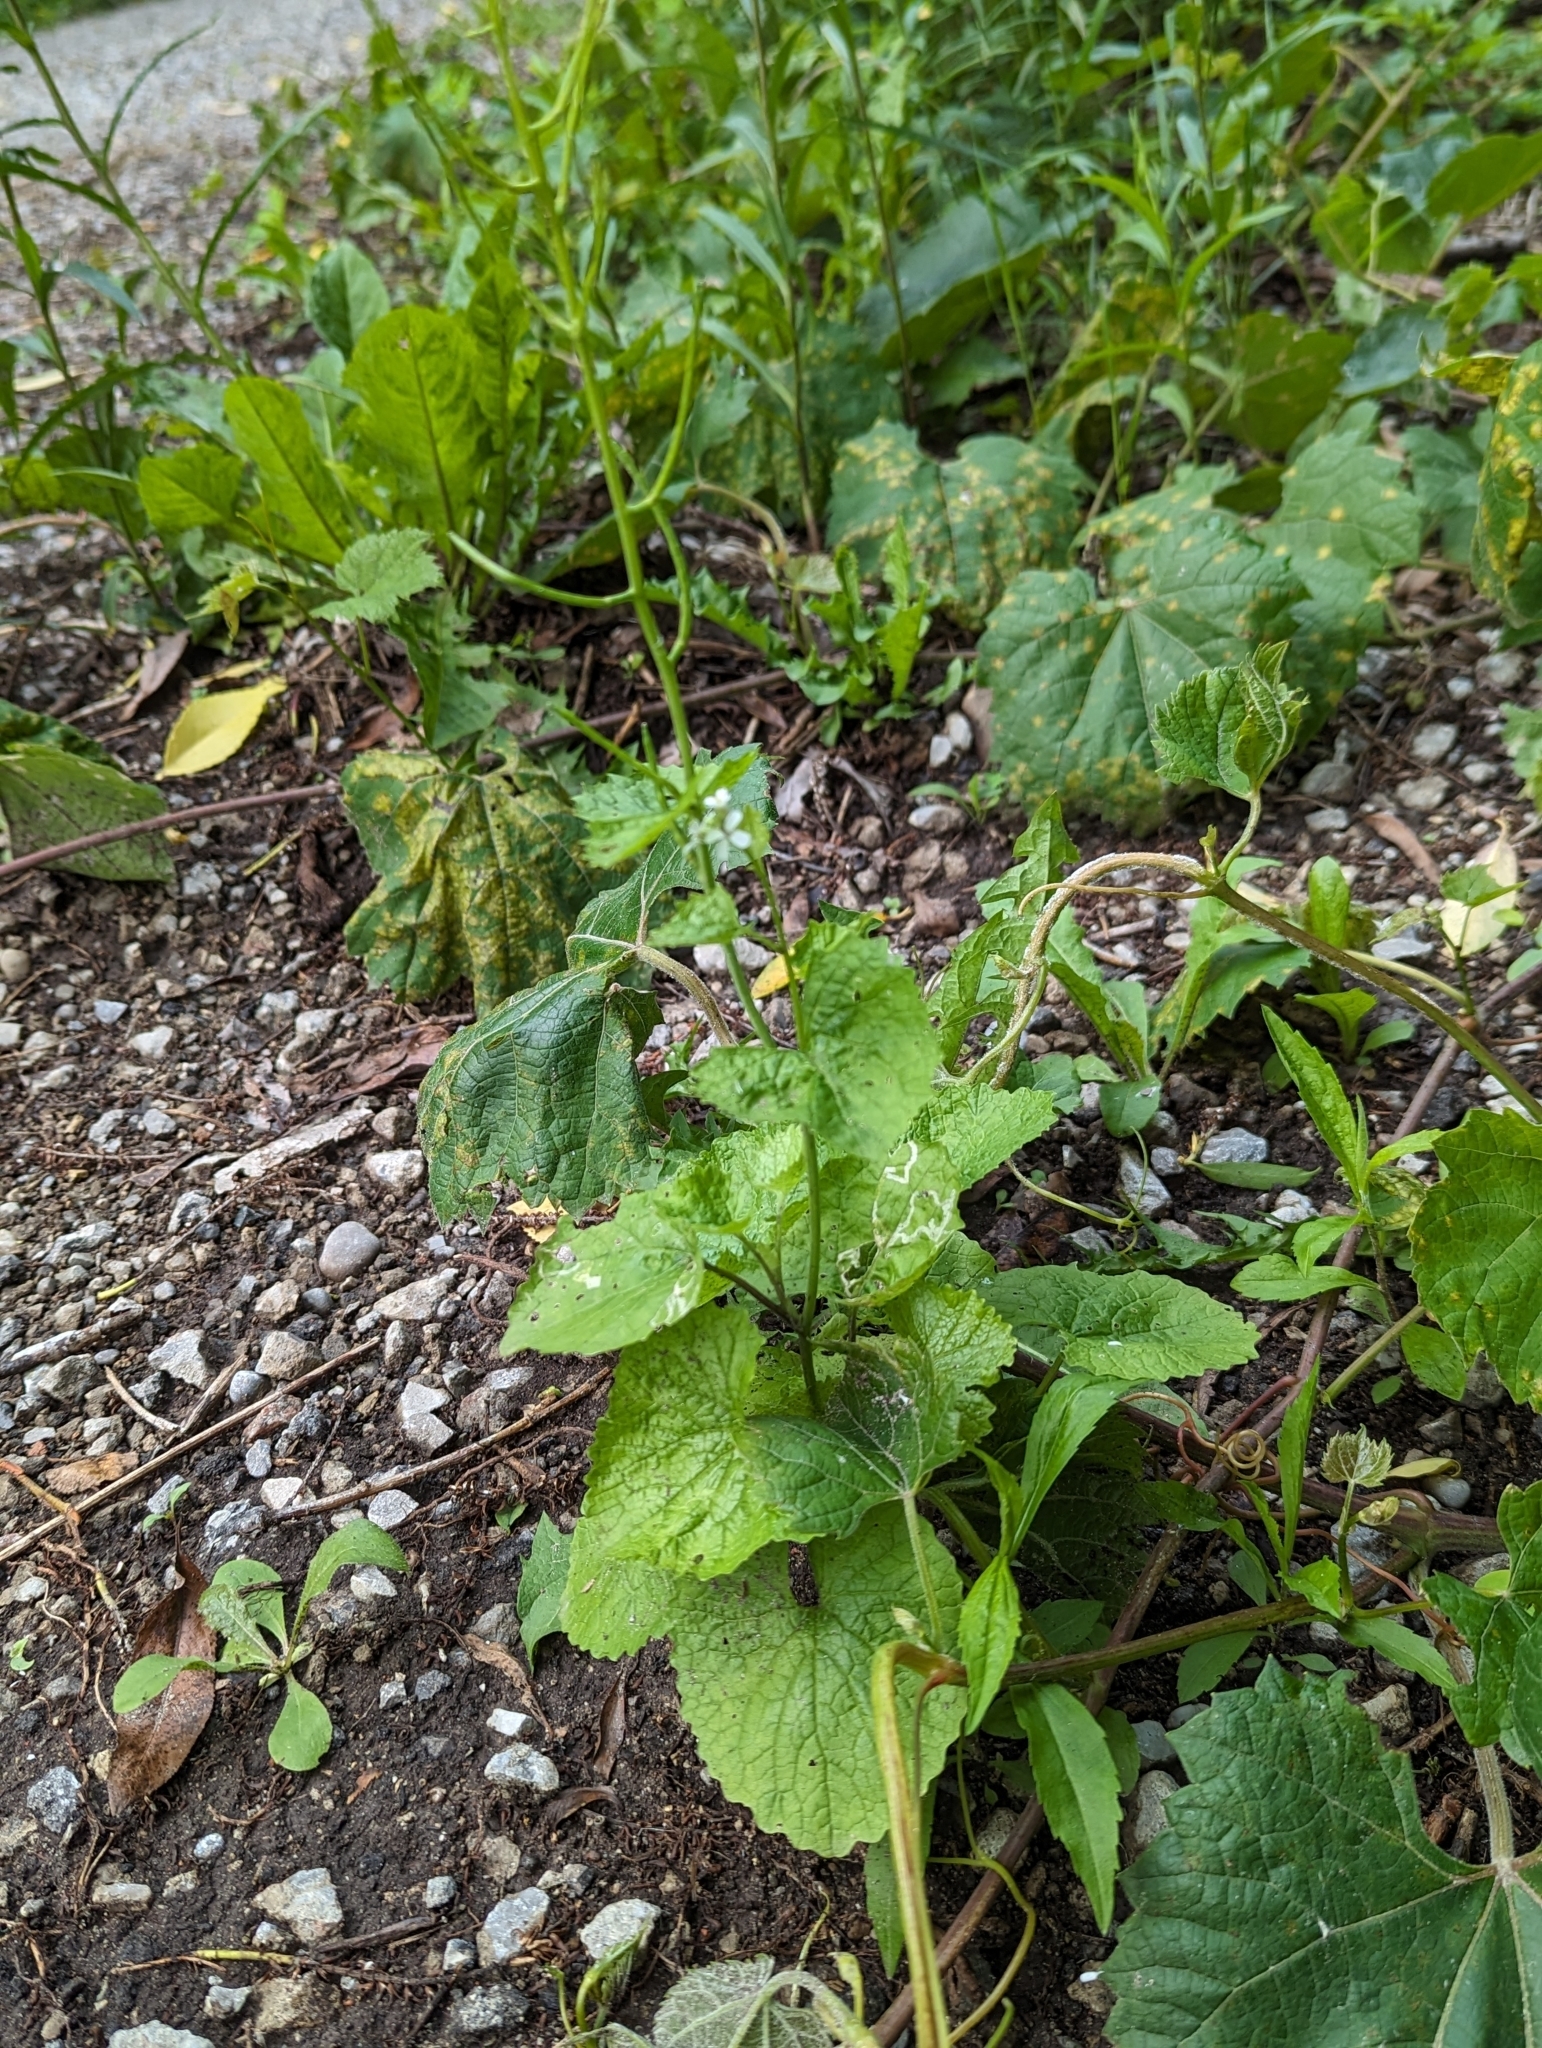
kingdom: Plantae
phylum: Tracheophyta
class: Magnoliopsida
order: Brassicales
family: Brassicaceae
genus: Alliaria
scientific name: Alliaria petiolata
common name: Garlic mustard
